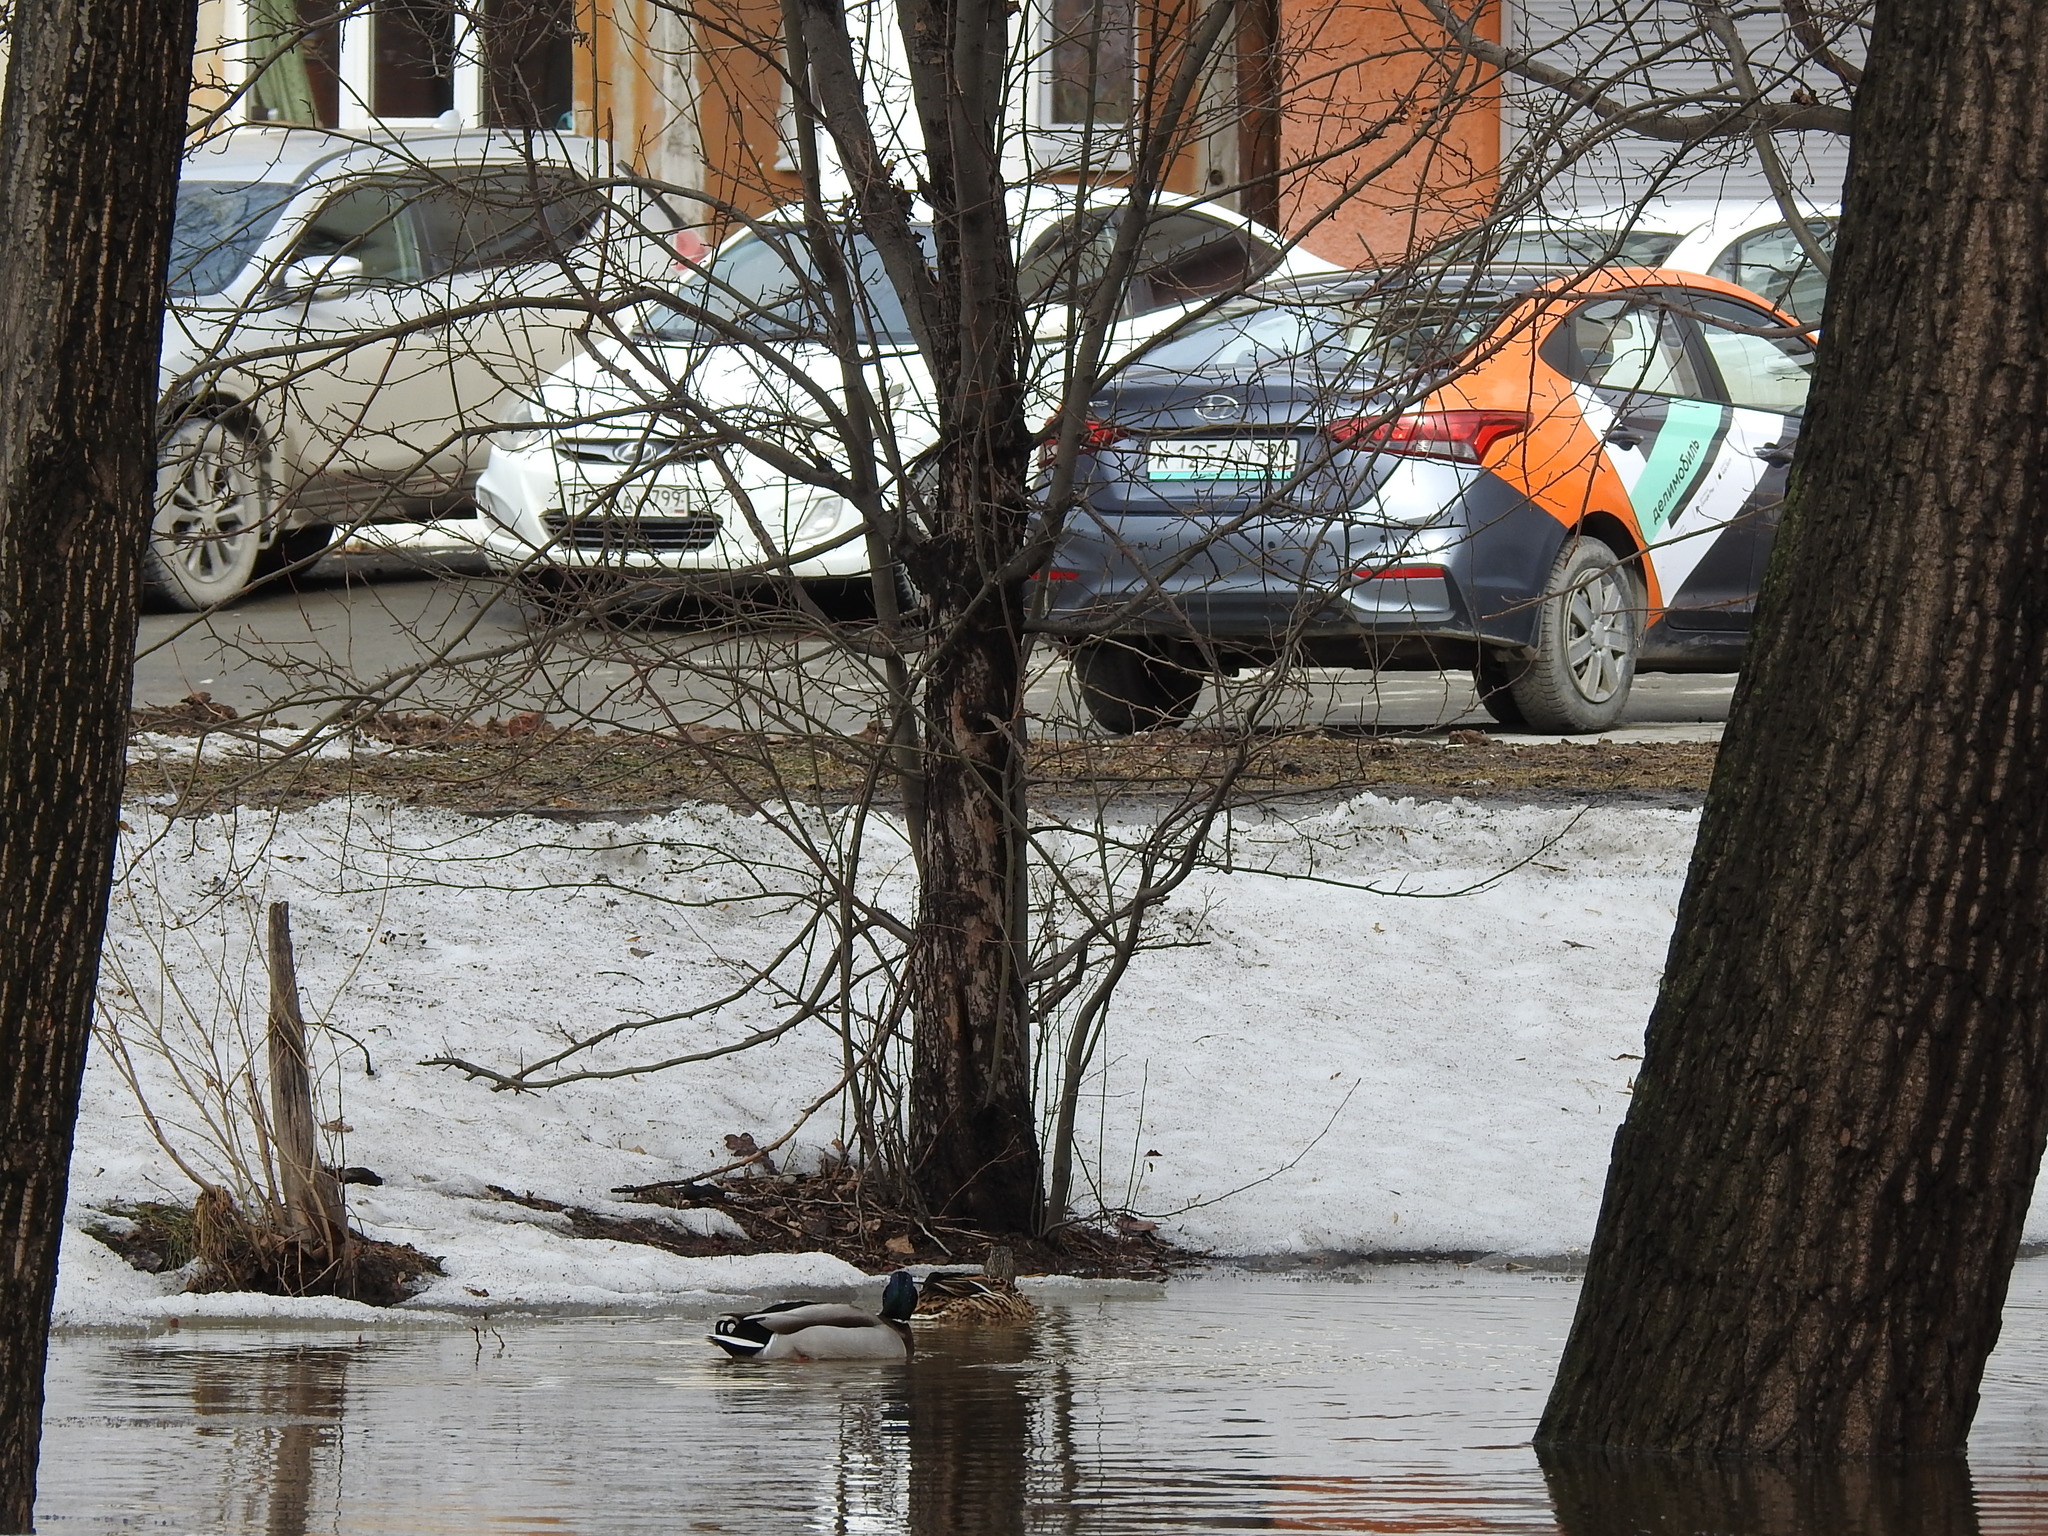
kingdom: Animalia
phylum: Chordata
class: Aves
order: Anseriformes
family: Anatidae
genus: Anas
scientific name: Anas platyrhynchos
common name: Mallard
